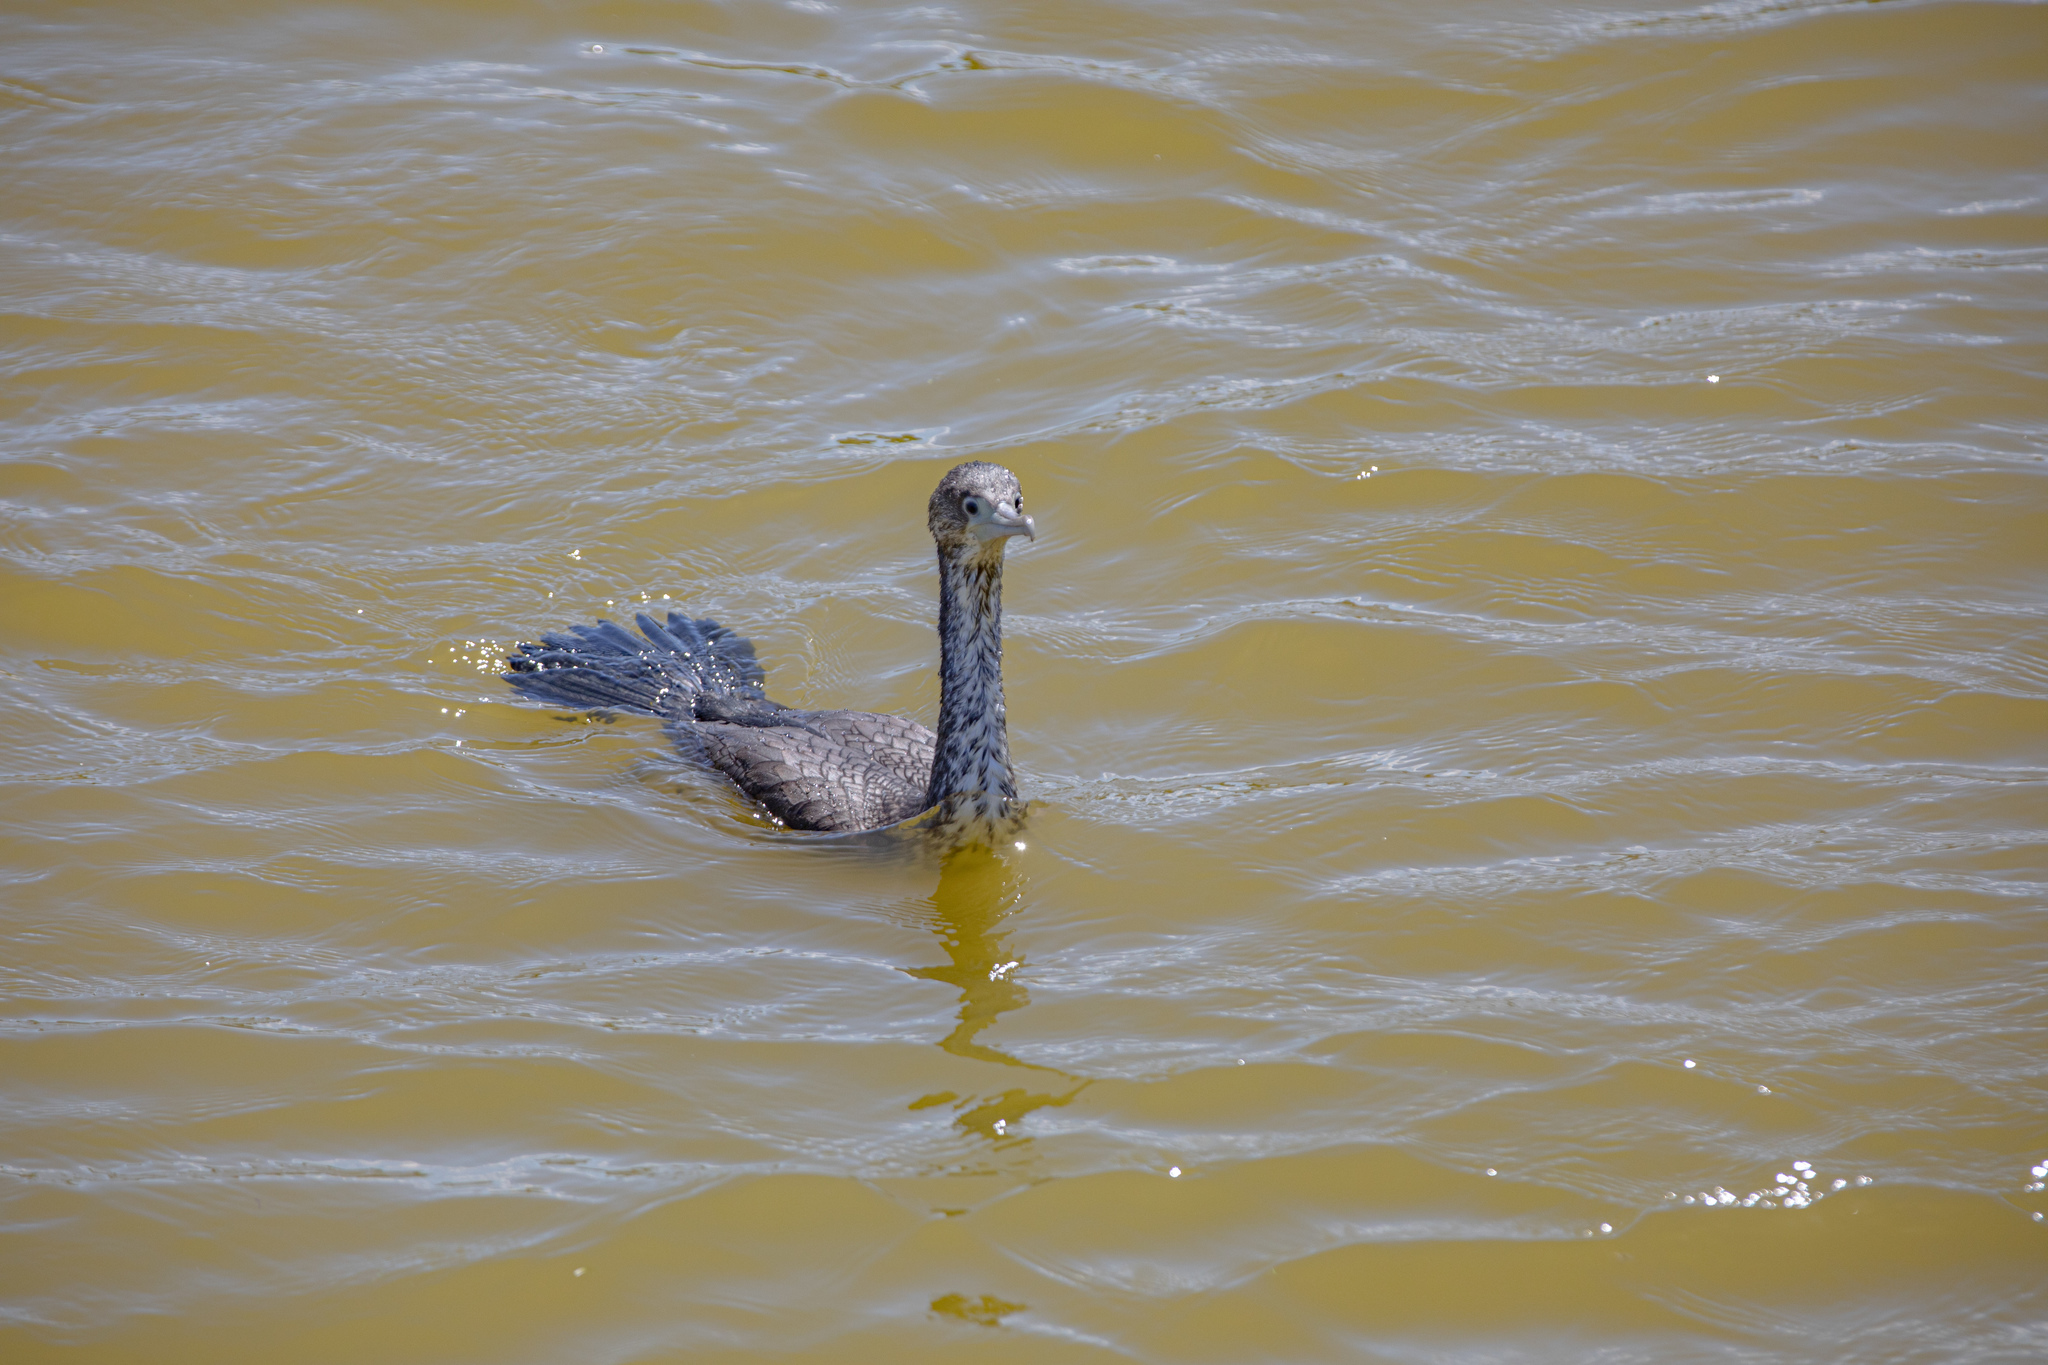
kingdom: Animalia
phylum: Chordata
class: Aves
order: Suliformes
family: Phalacrocoracidae
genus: Phalacrocorax
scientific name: Phalacrocorax varius
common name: Pied cormorant
